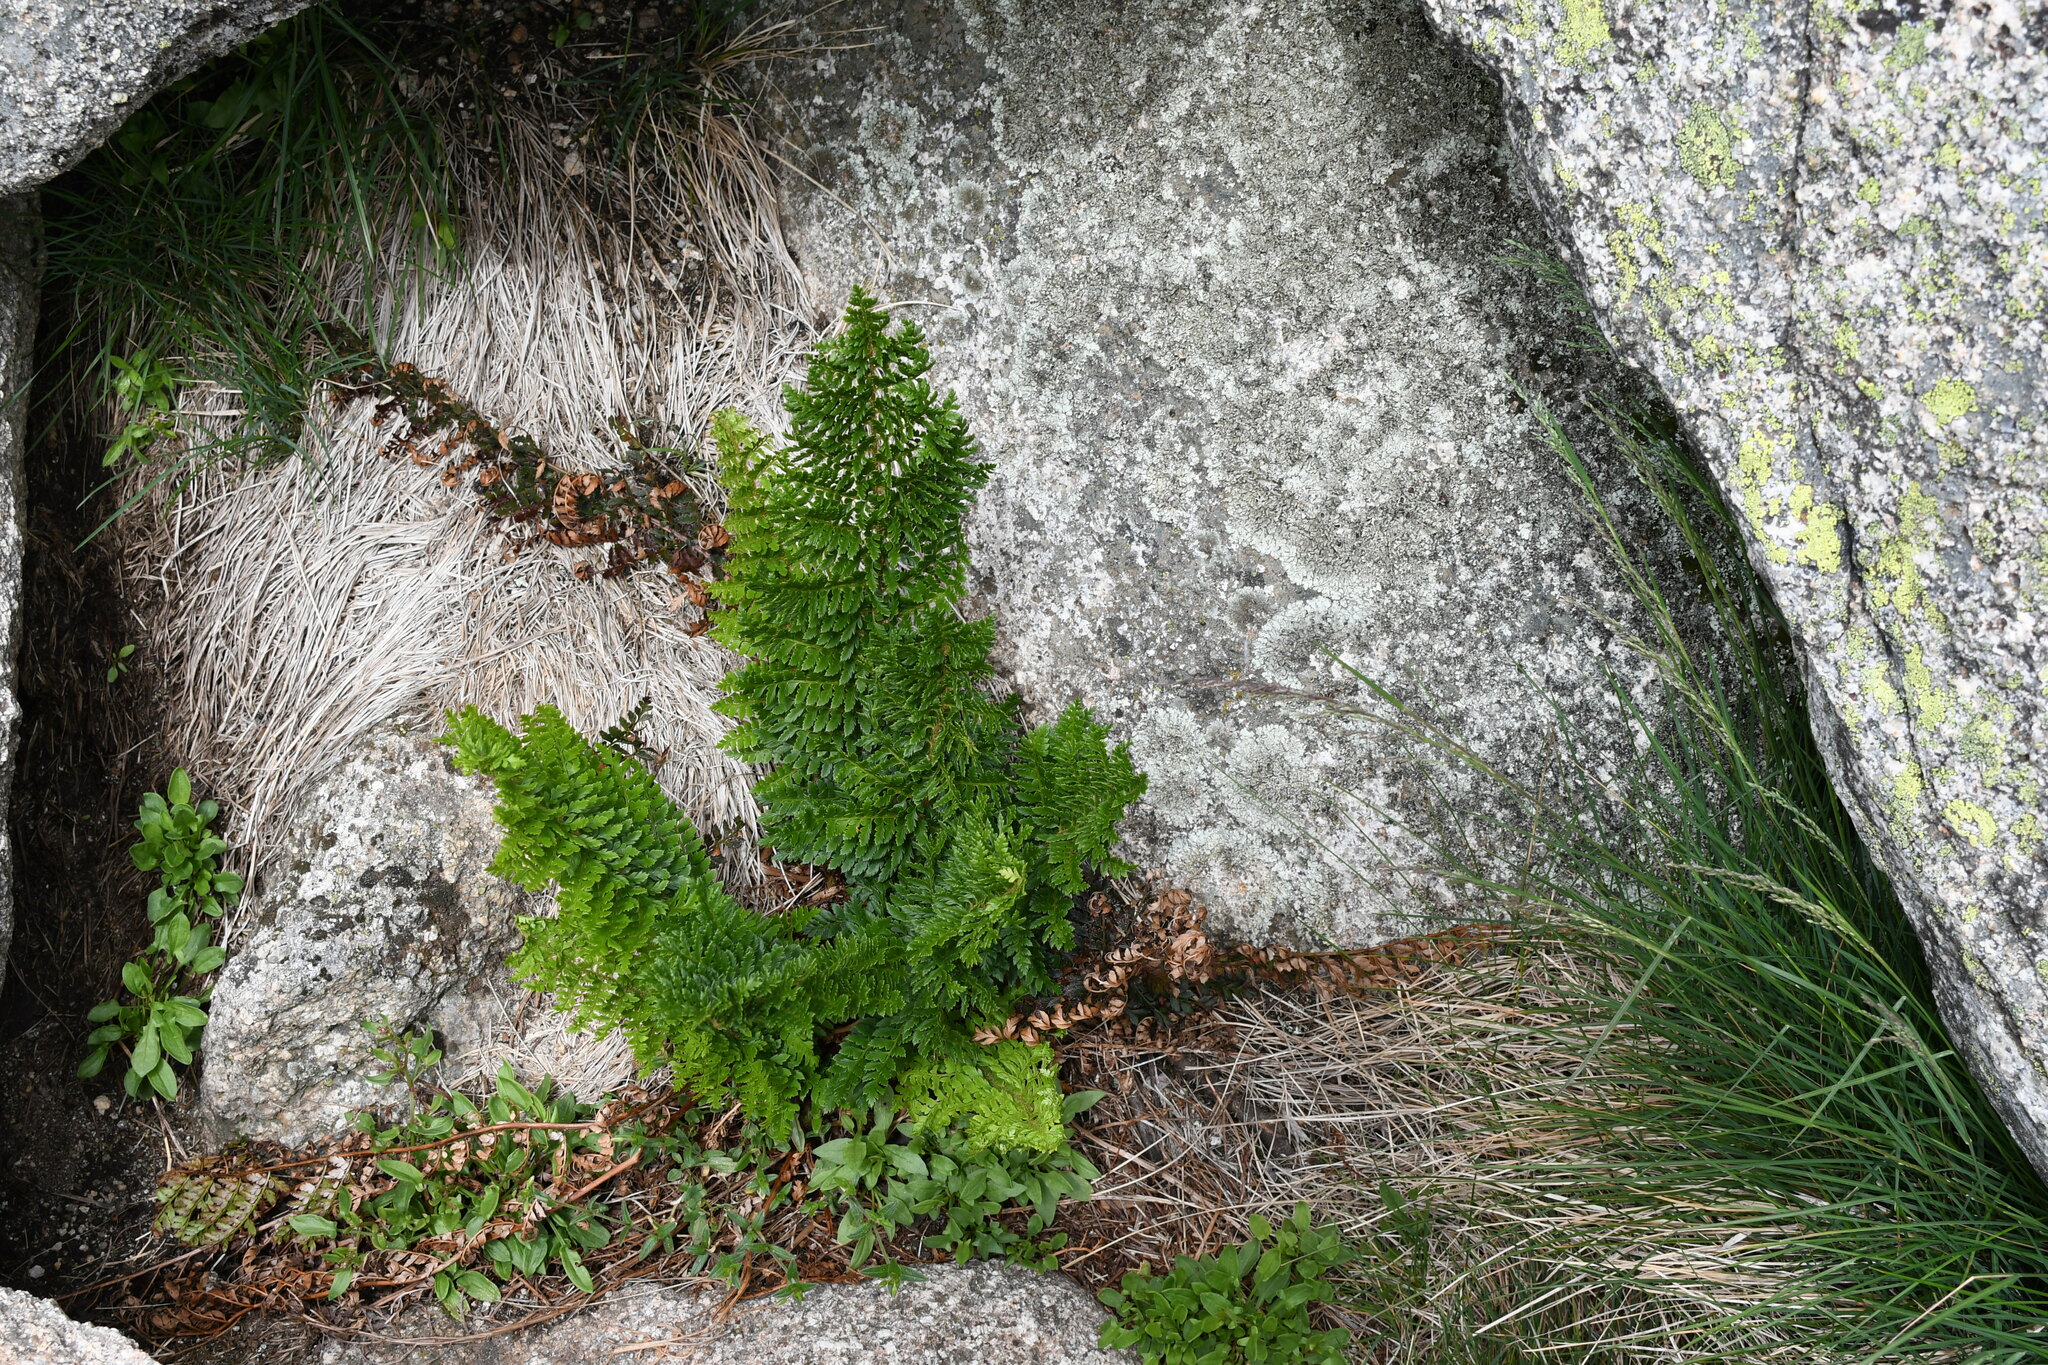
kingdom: Plantae
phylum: Tracheophyta
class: Polypodiopsida
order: Polypodiales
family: Dryopteridaceae
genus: Polystichum
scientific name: Polystichum proliferum
